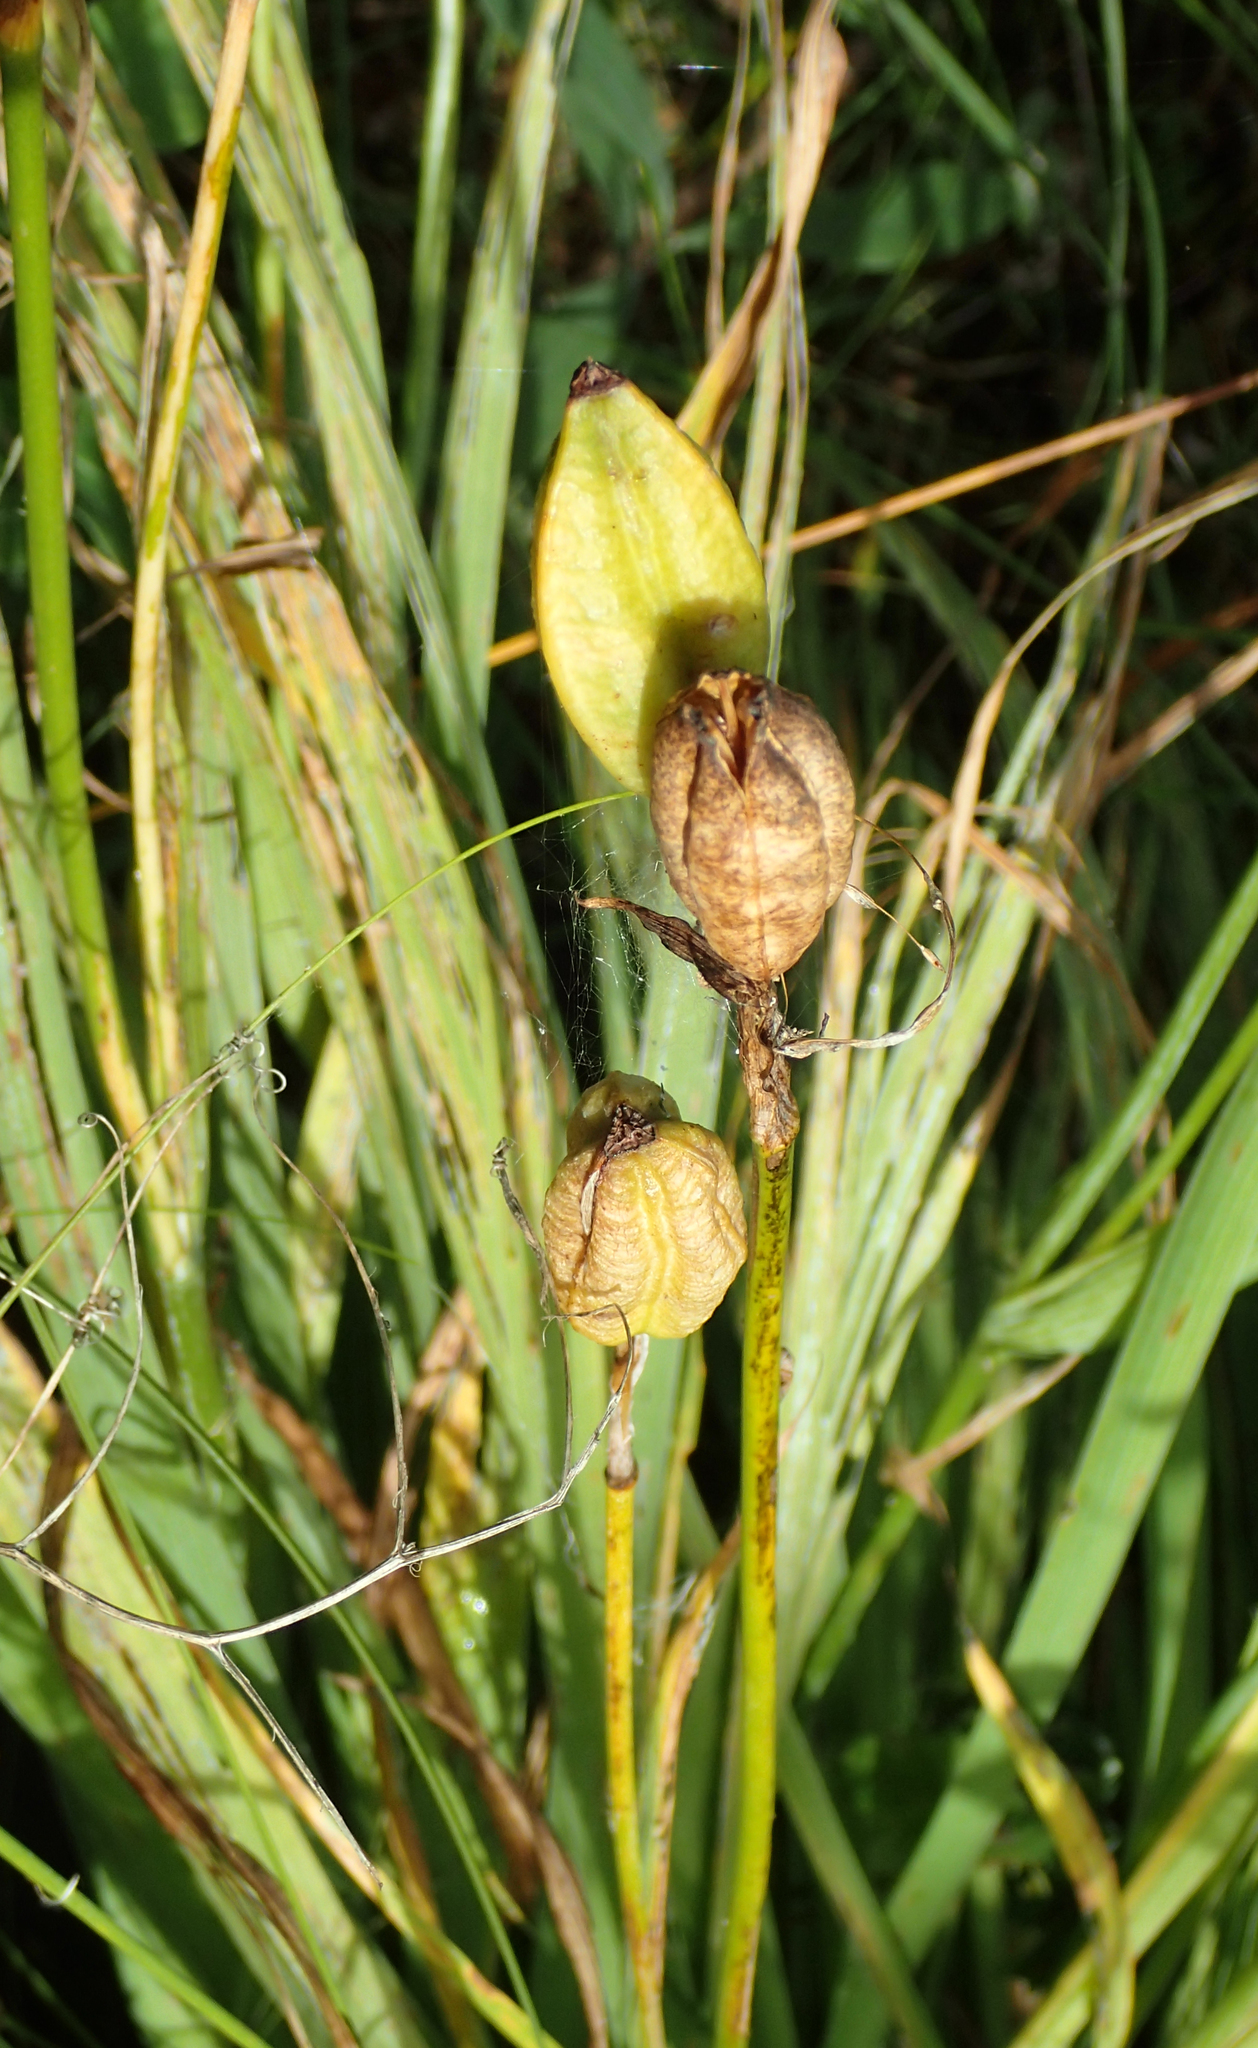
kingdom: Plantae
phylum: Tracheophyta
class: Liliopsida
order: Asparagales
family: Iridaceae
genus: Iris
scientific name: Iris setosa
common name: Arctic blue flag
